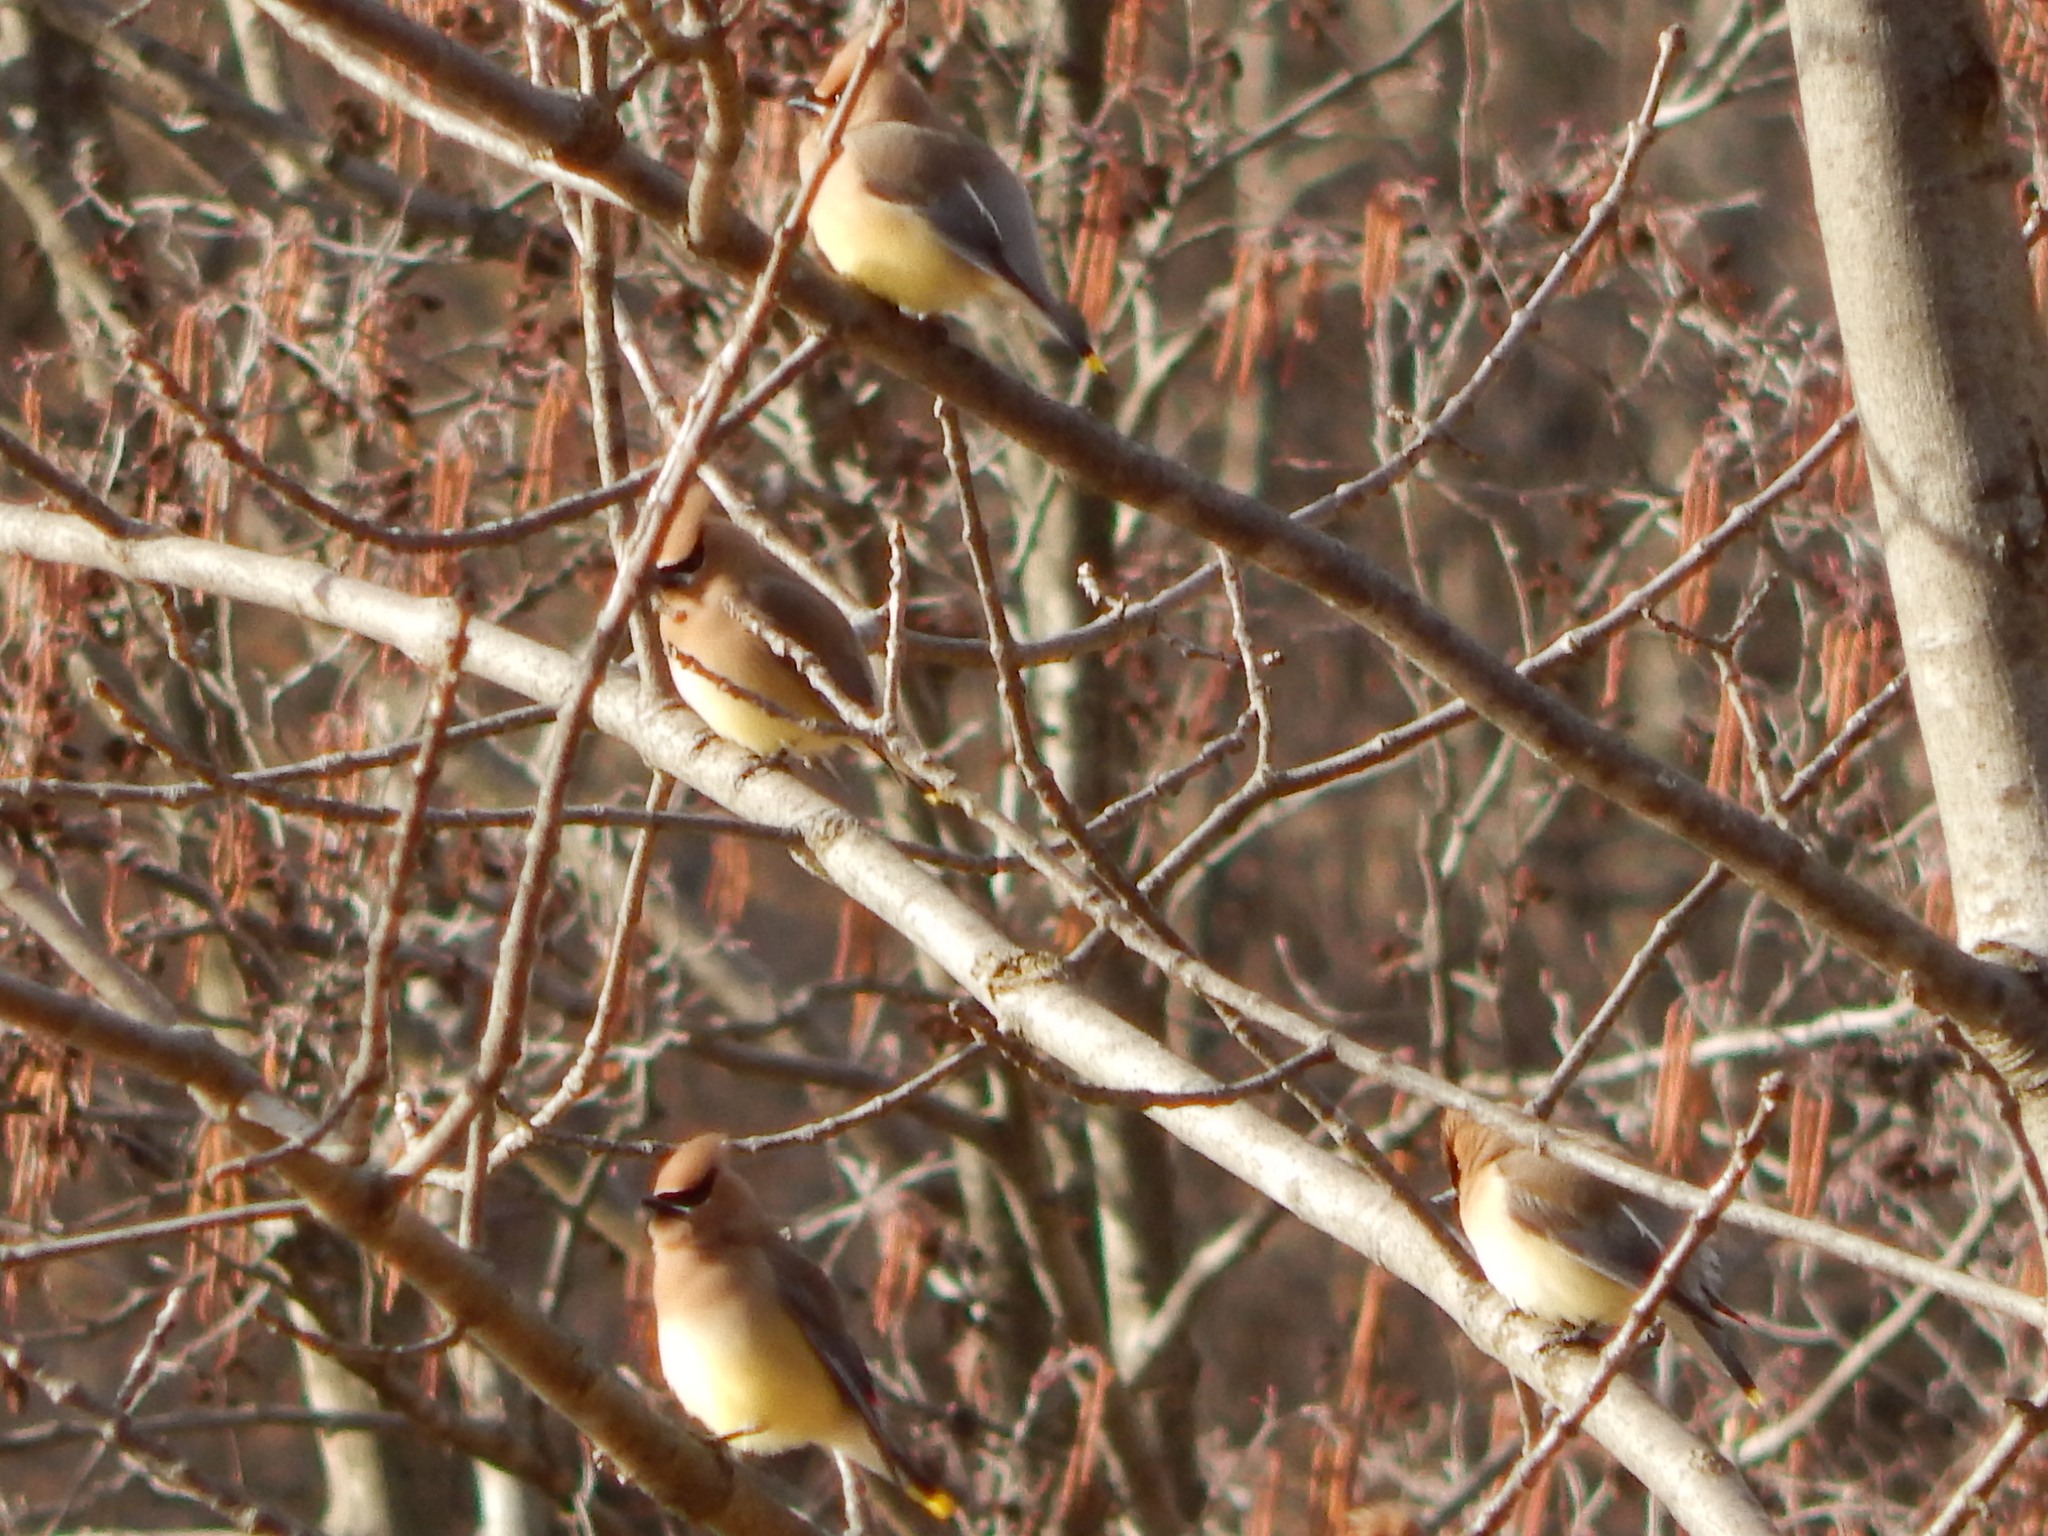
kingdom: Animalia
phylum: Chordata
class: Aves
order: Passeriformes
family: Bombycillidae
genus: Bombycilla
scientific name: Bombycilla cedrorum
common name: Cedar waxwing
